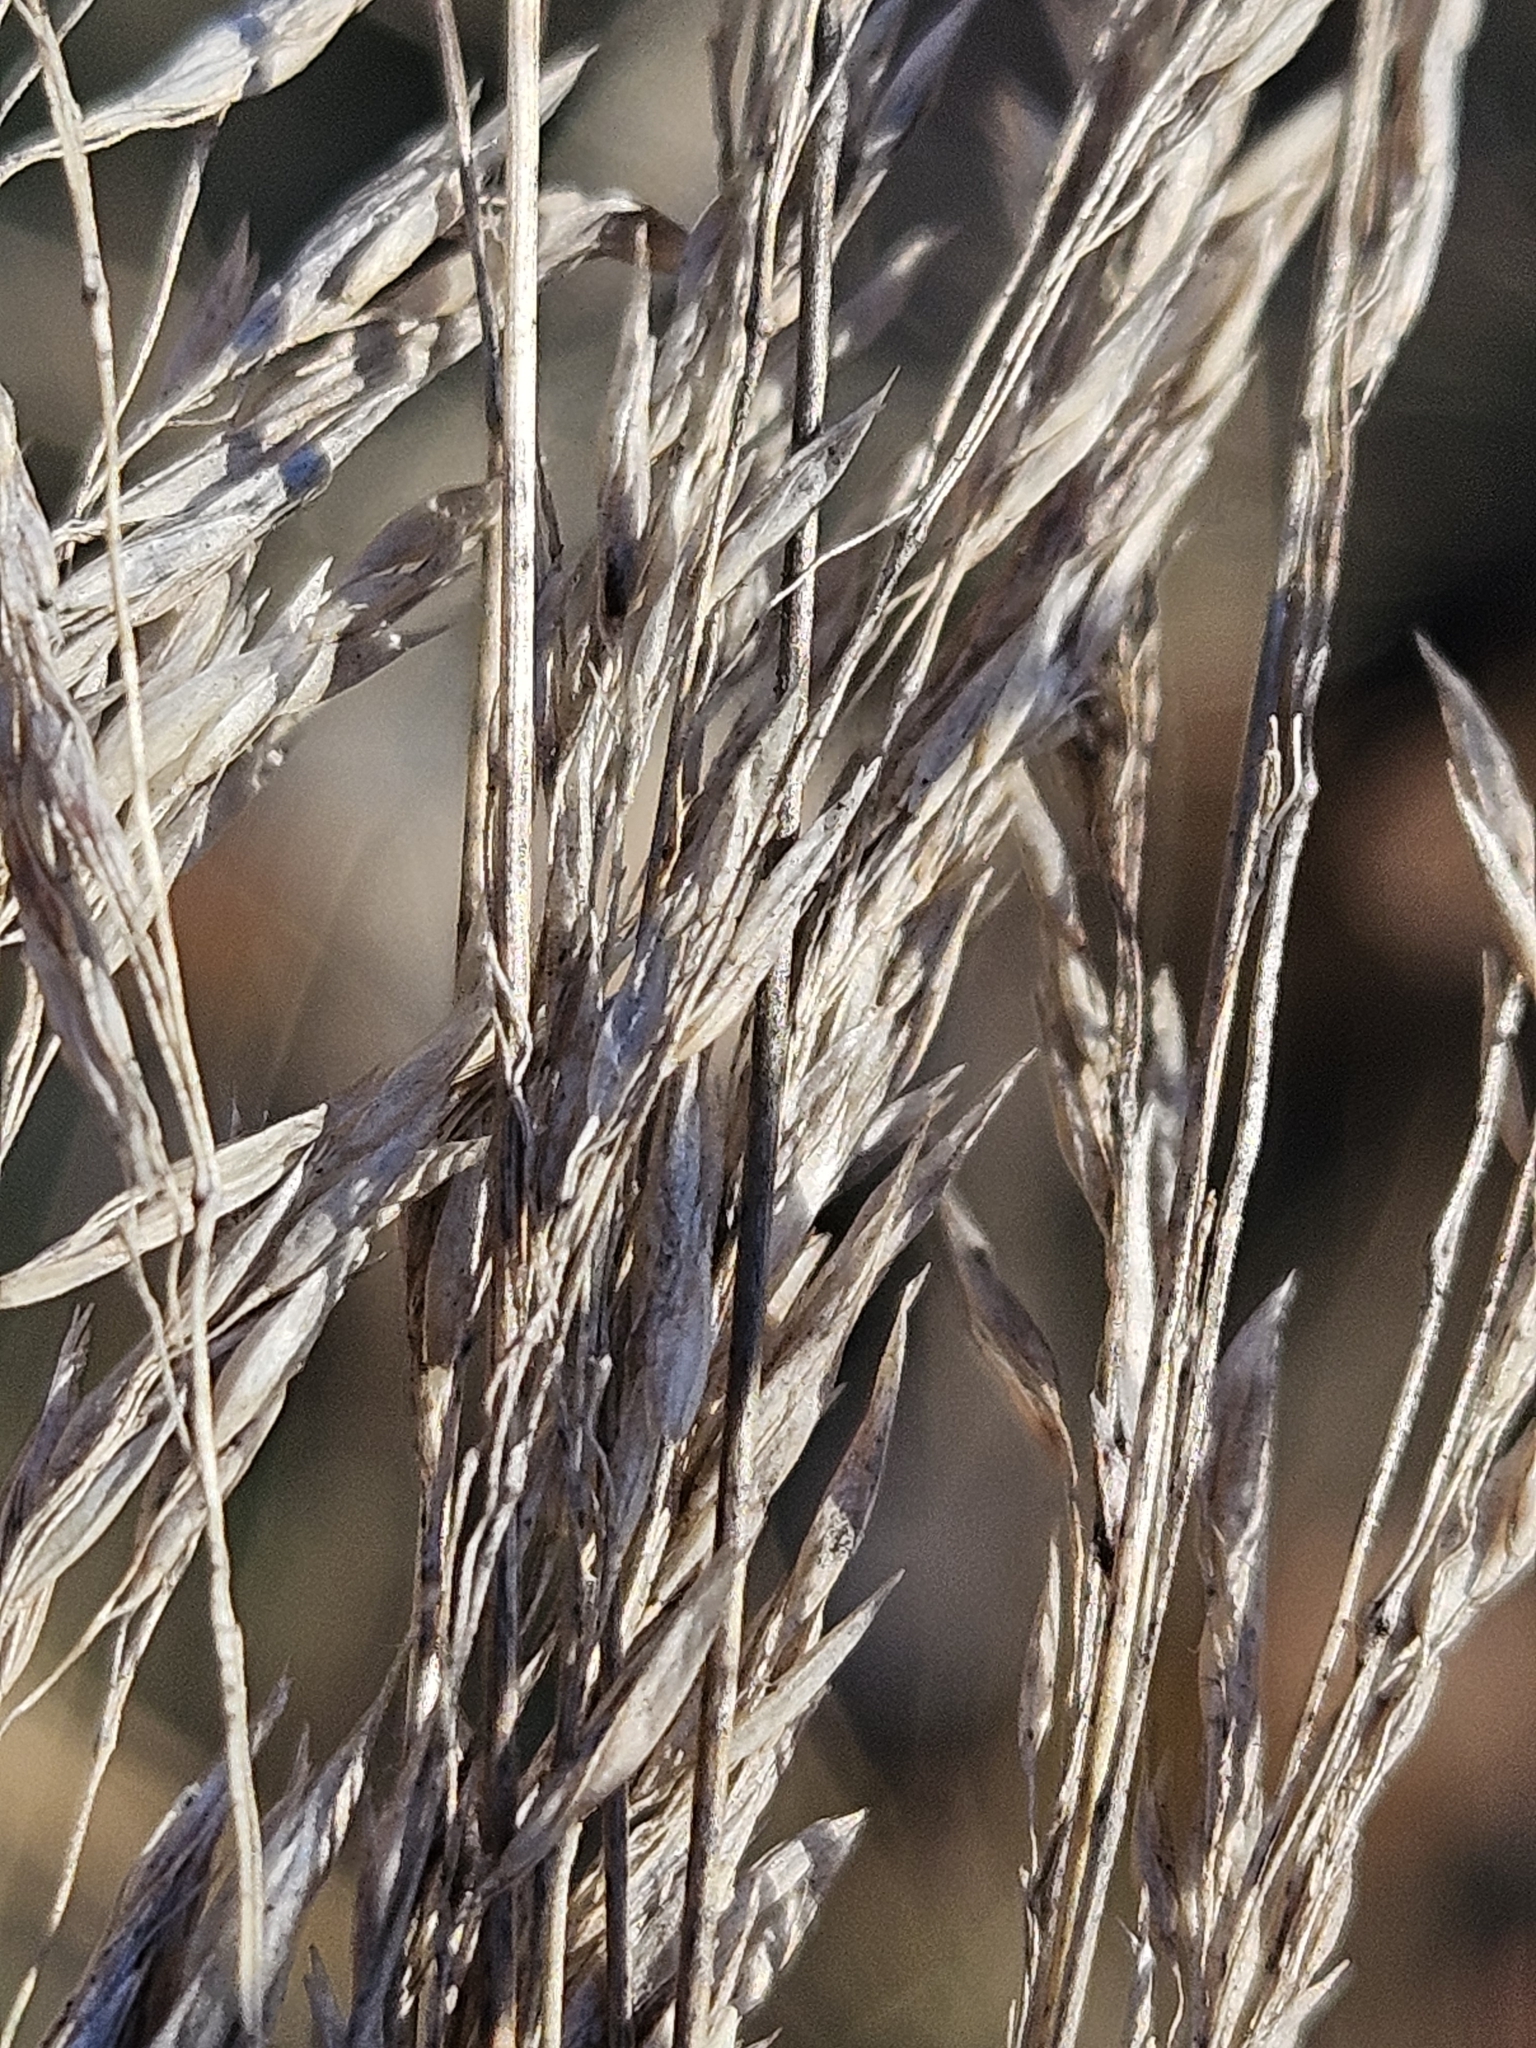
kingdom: Plantae
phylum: Tracheophyta
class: Liliopsida
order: Poales
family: Poaceae
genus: Festuca
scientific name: Festuca trachyphylla
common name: Hard fescue
